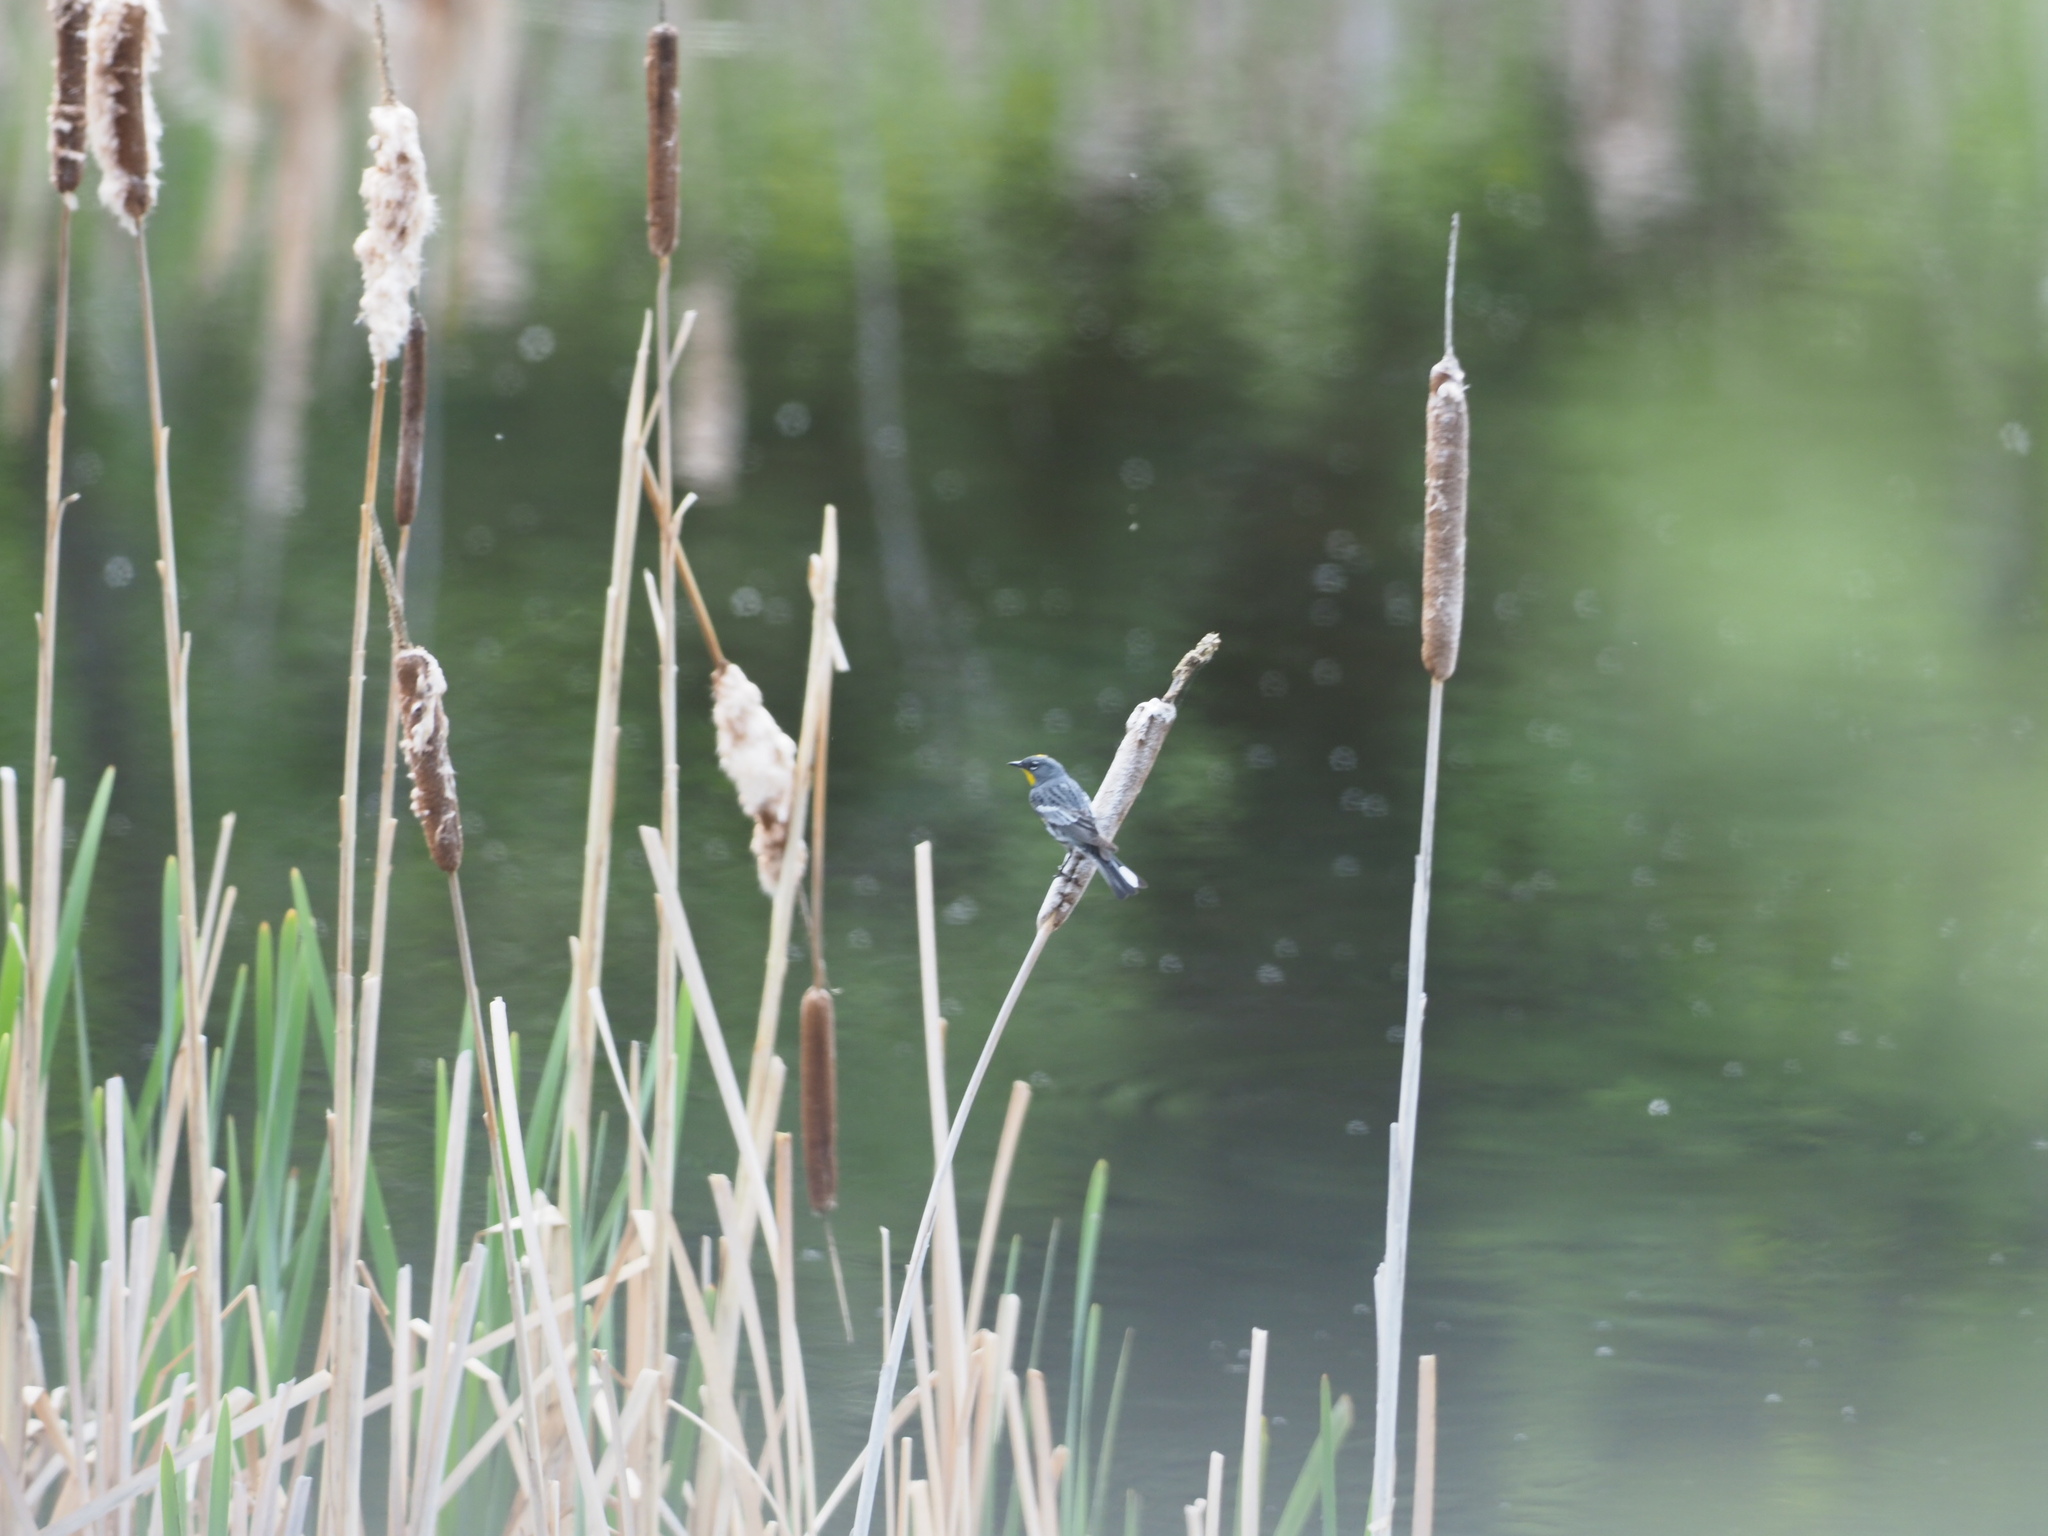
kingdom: Animalia
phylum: Chordata
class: Aves
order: Passeriformes
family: Parulidae
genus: Setophaga
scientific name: Setophaga coronata
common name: Myrtle warbler
